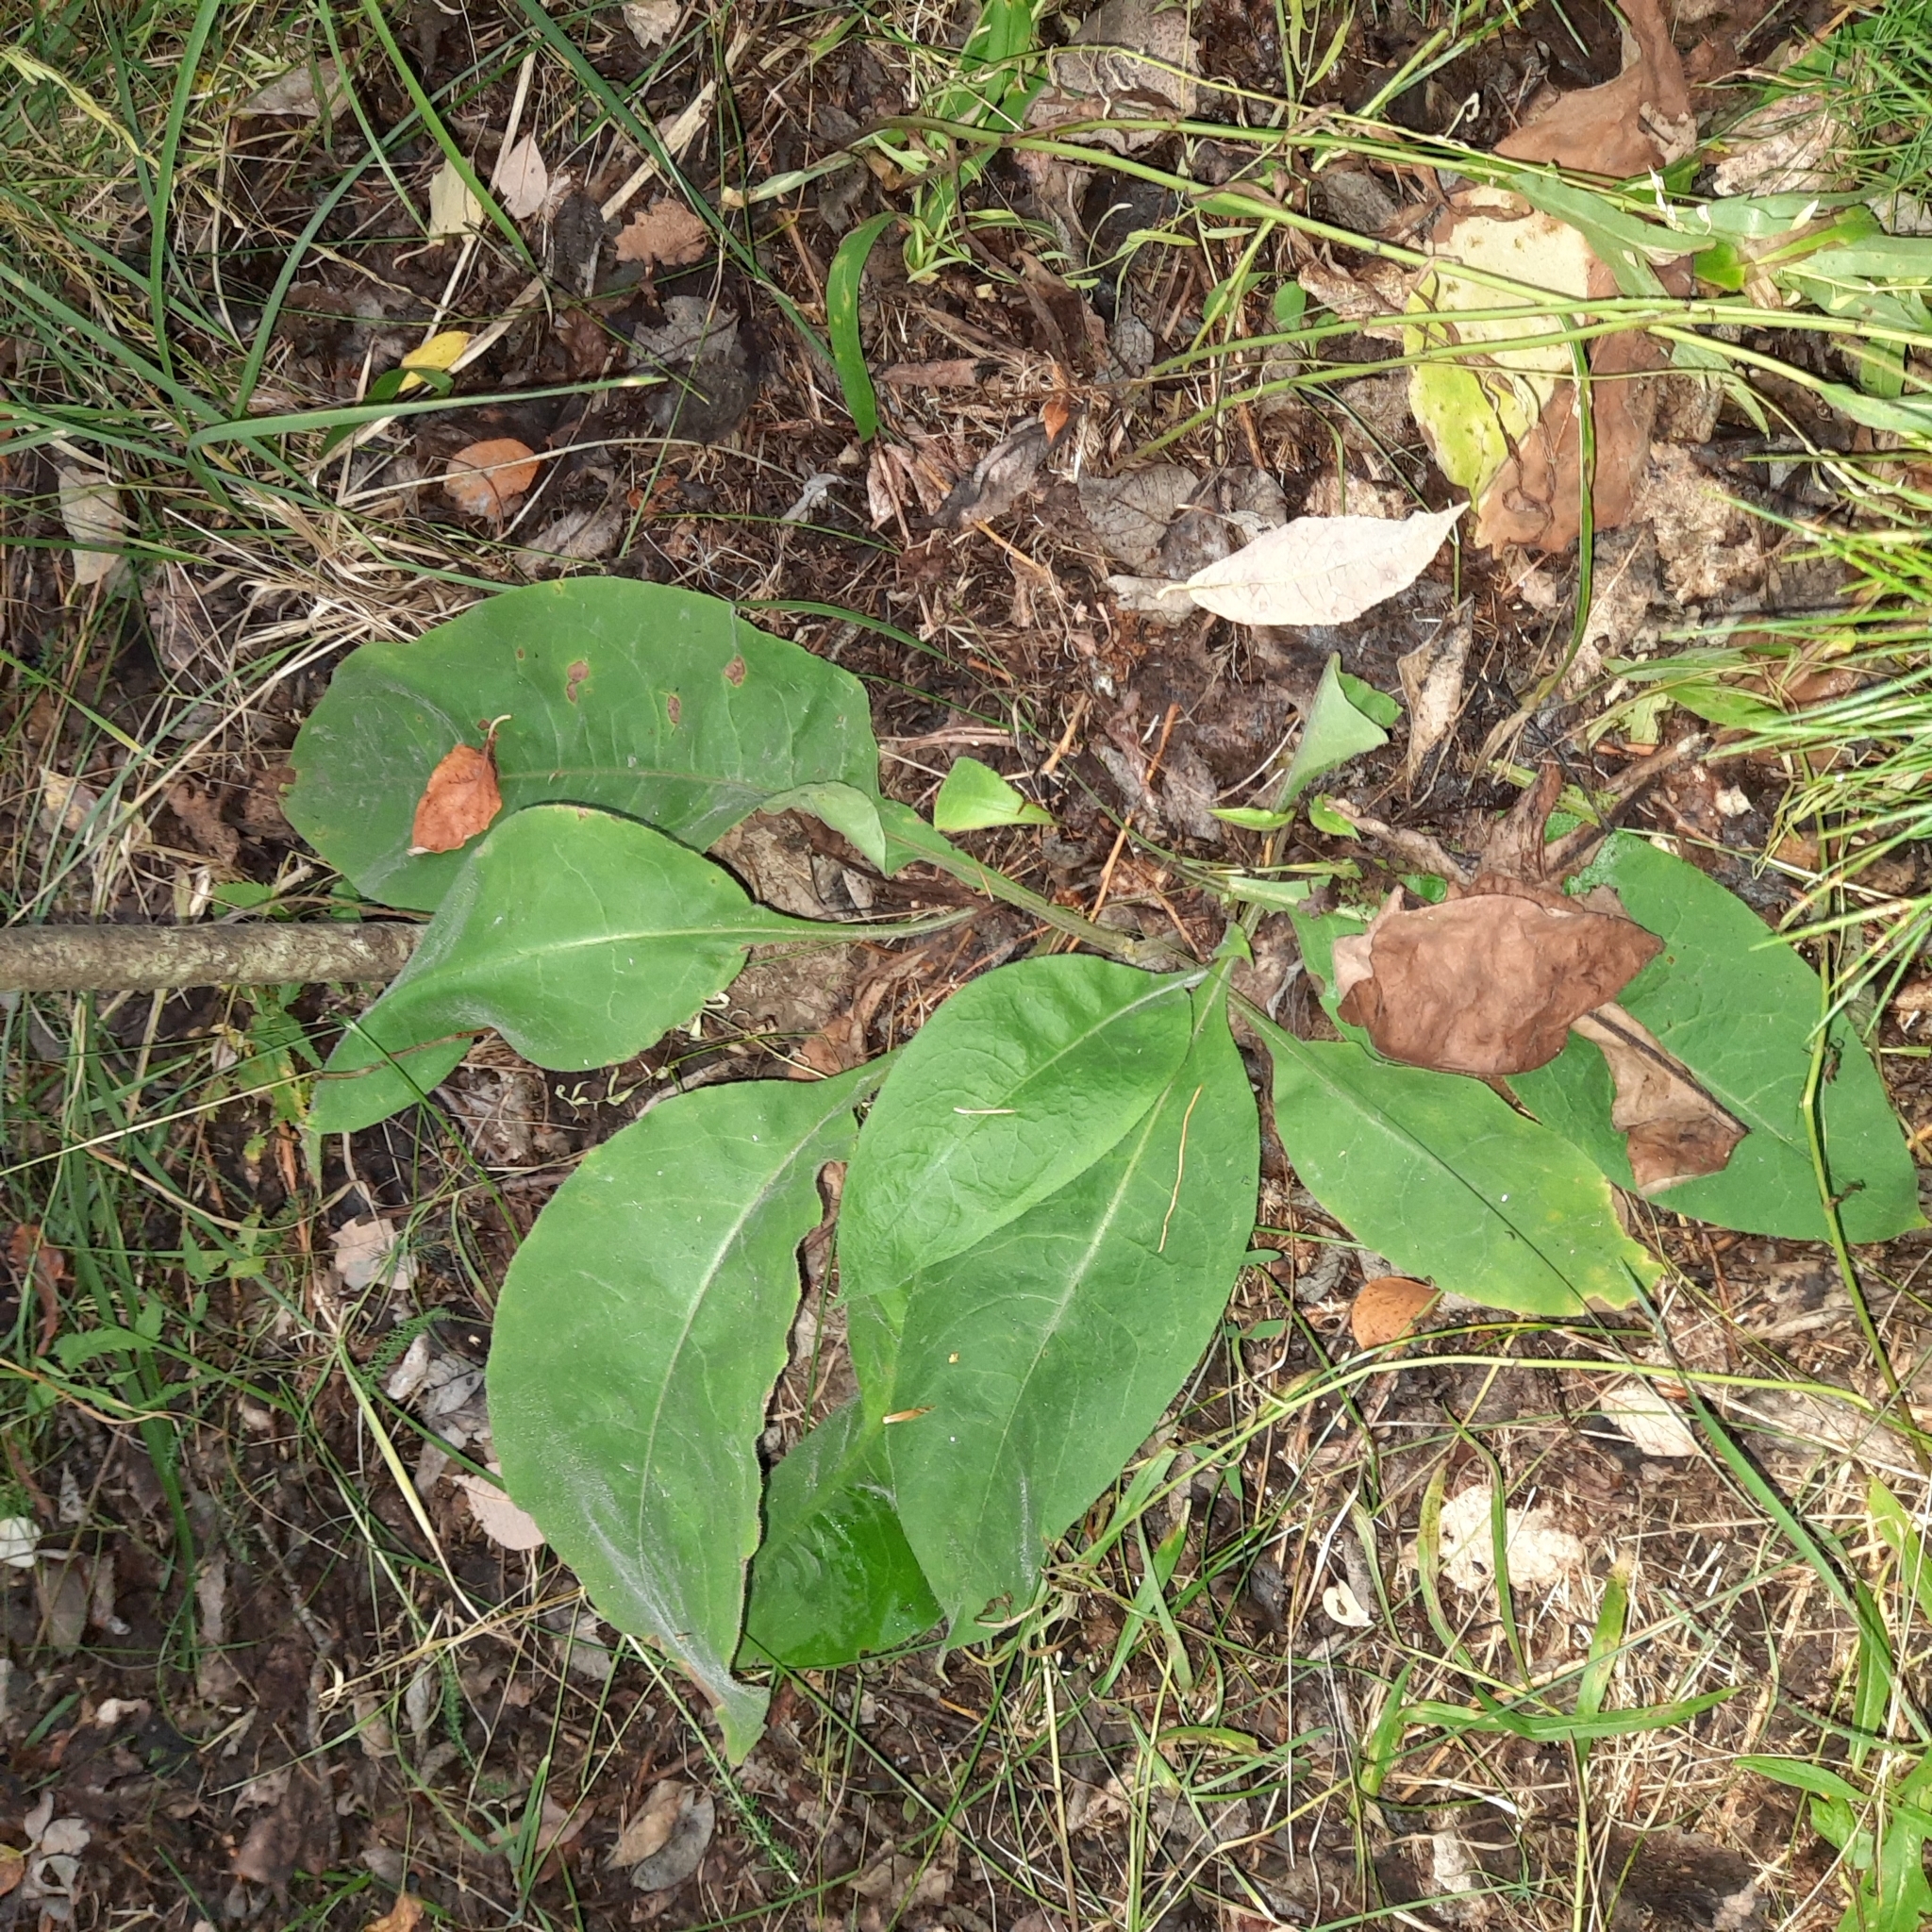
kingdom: Plantae
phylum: Tracheophyta
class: Magnoliopsida
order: Boraginales
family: Boraginaceae
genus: Pulmonaria
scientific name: Pulmonaria mollis
